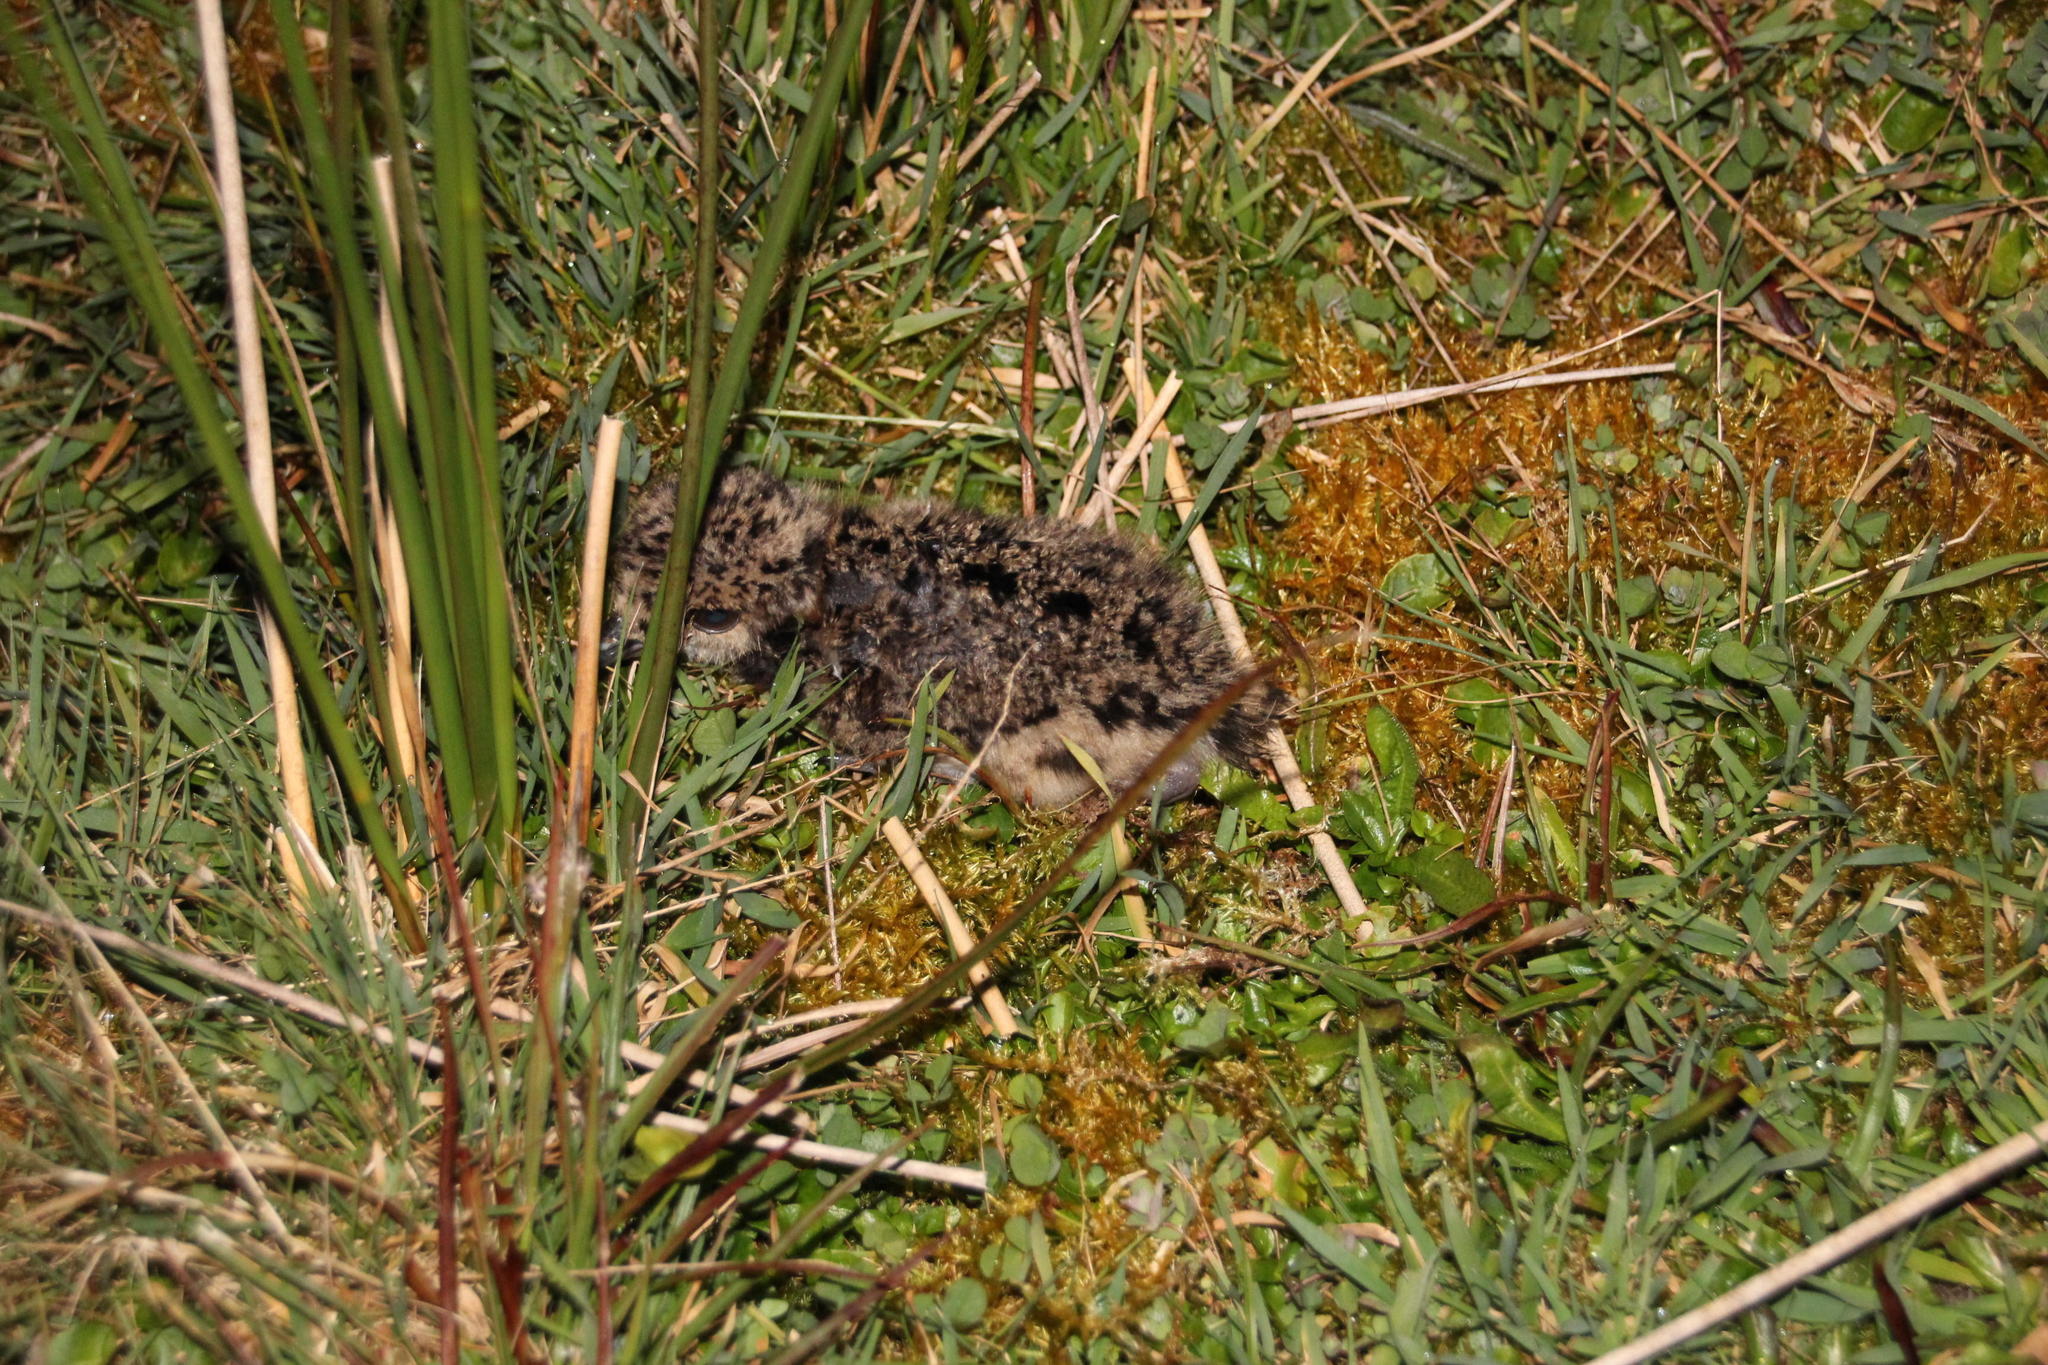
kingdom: Animalia
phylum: Chordata
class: Aves
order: Charadriiformes
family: Charadriidae
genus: Vanellus
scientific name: Vanellus chilensis
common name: Southern lapwing
